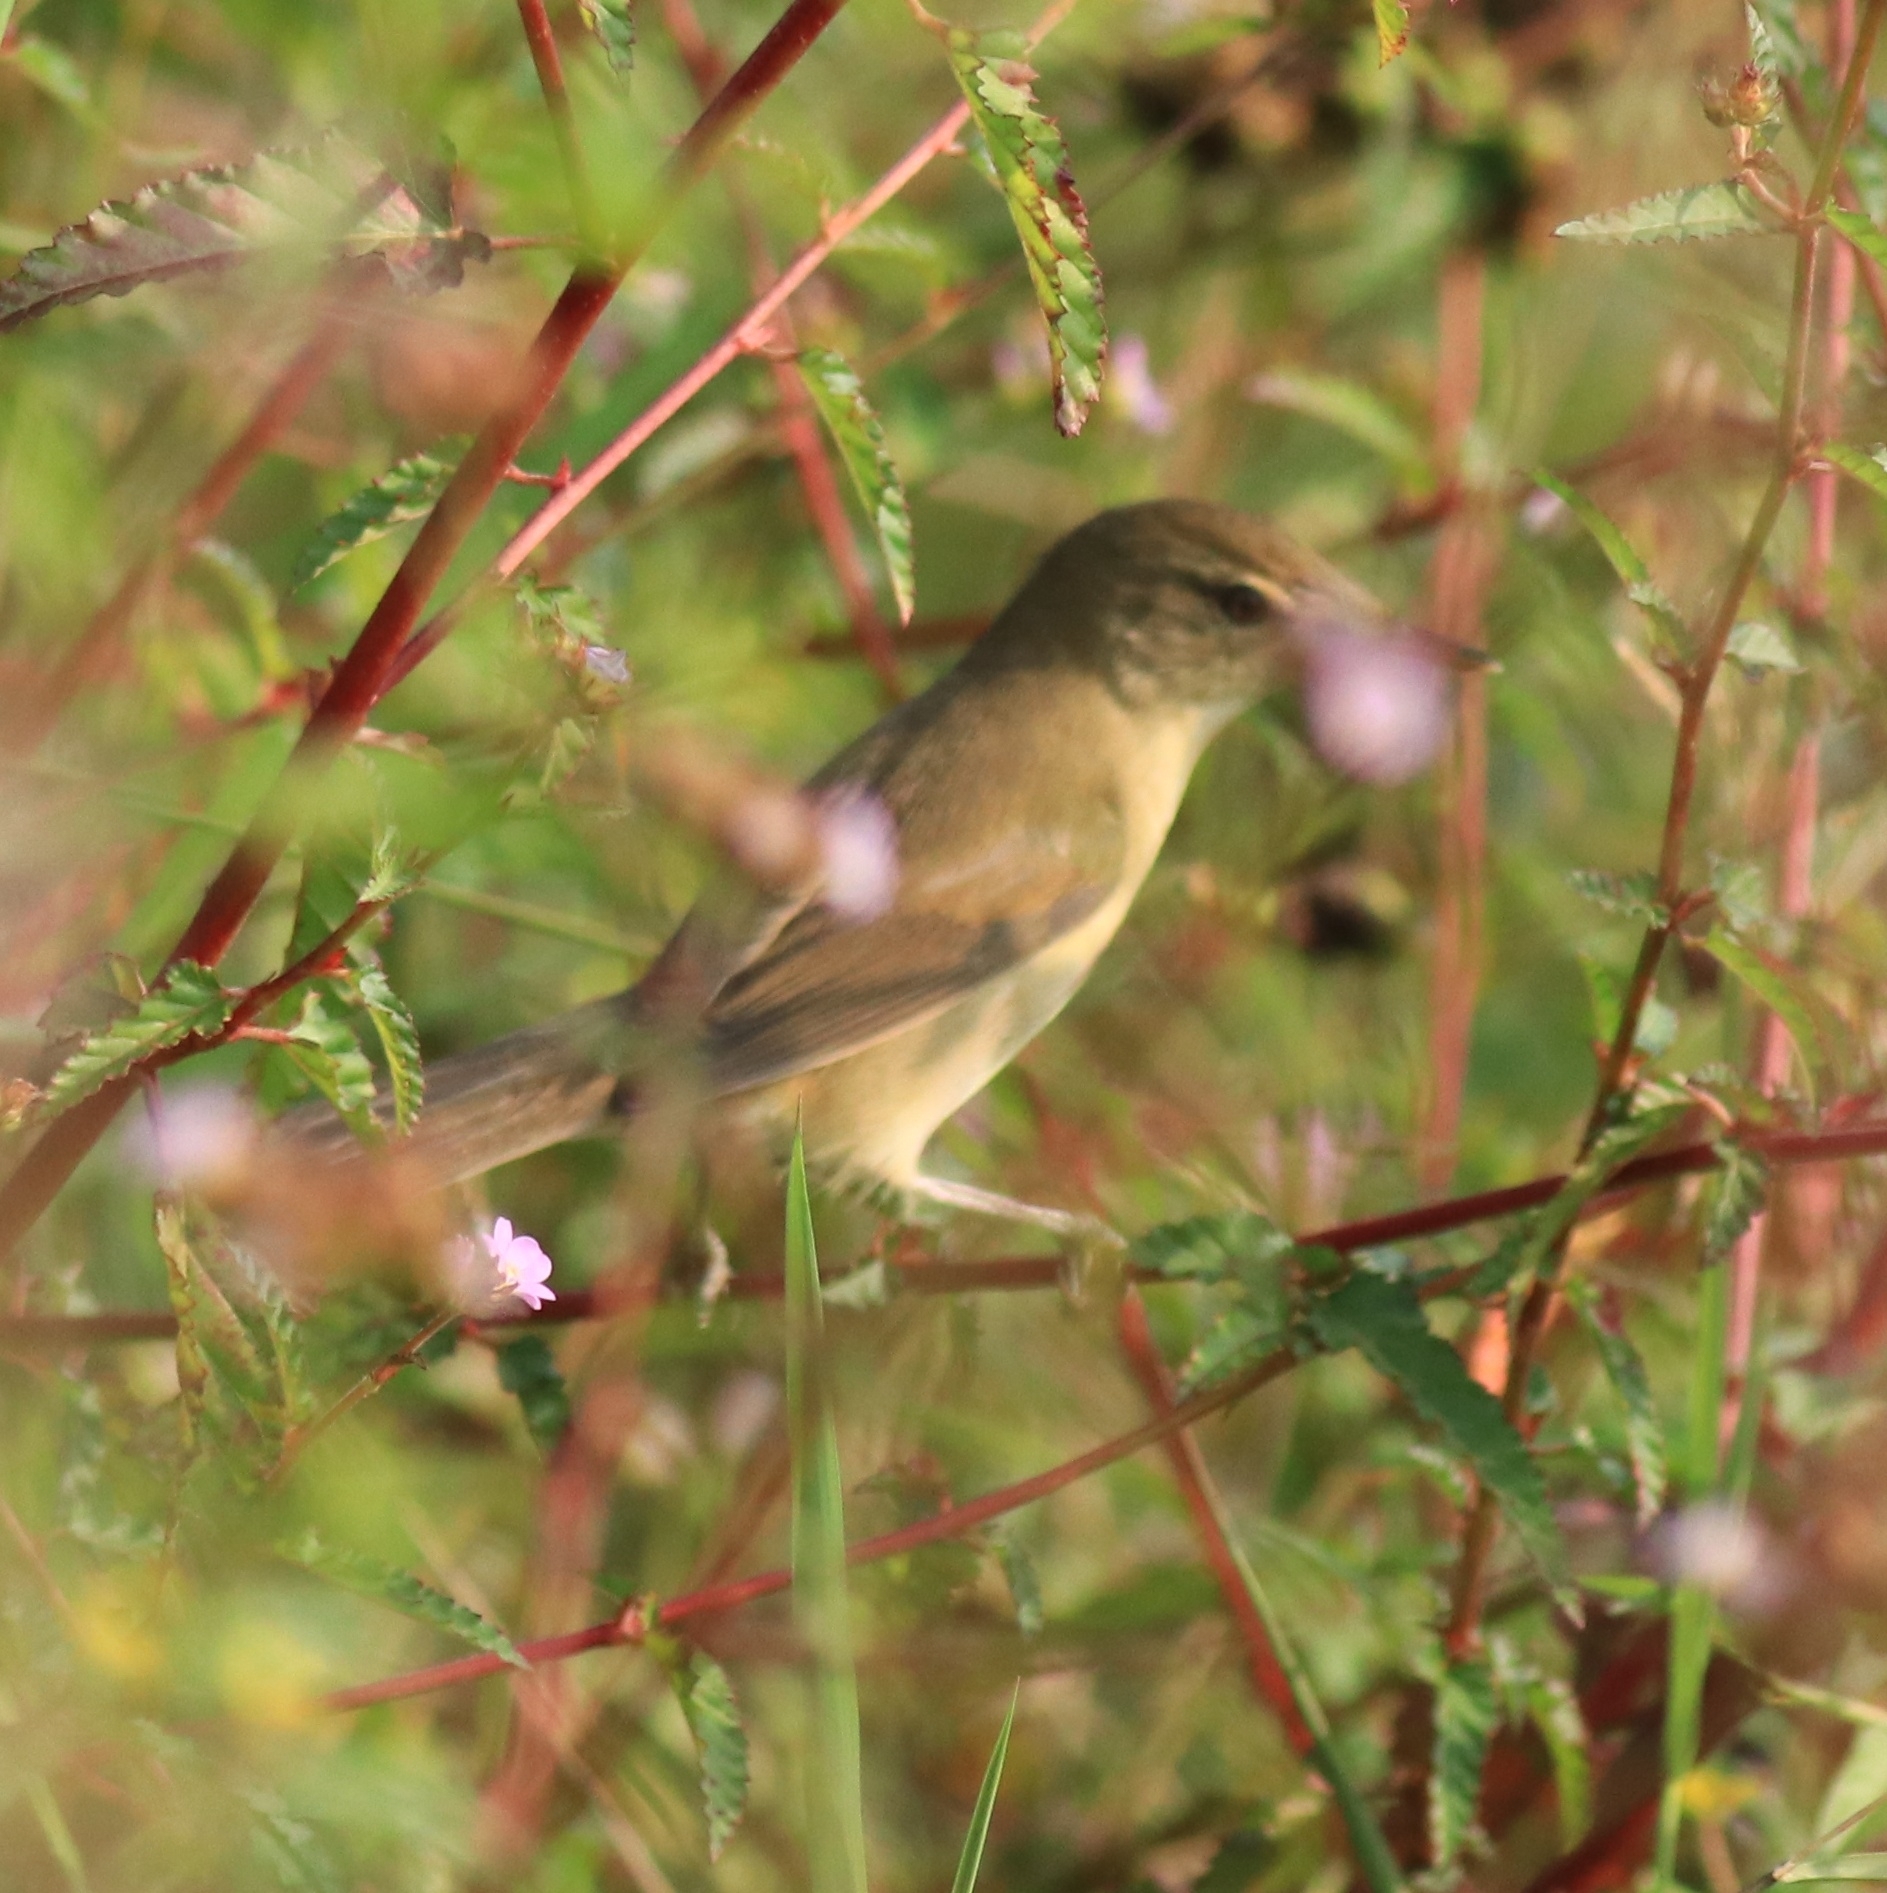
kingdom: Animalia
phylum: Chordata
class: Aves
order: Passeriformes
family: Acrocephalidae
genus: Acrocephalus
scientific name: Acrocephalus dumetorum
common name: Blyth's reed warbler
